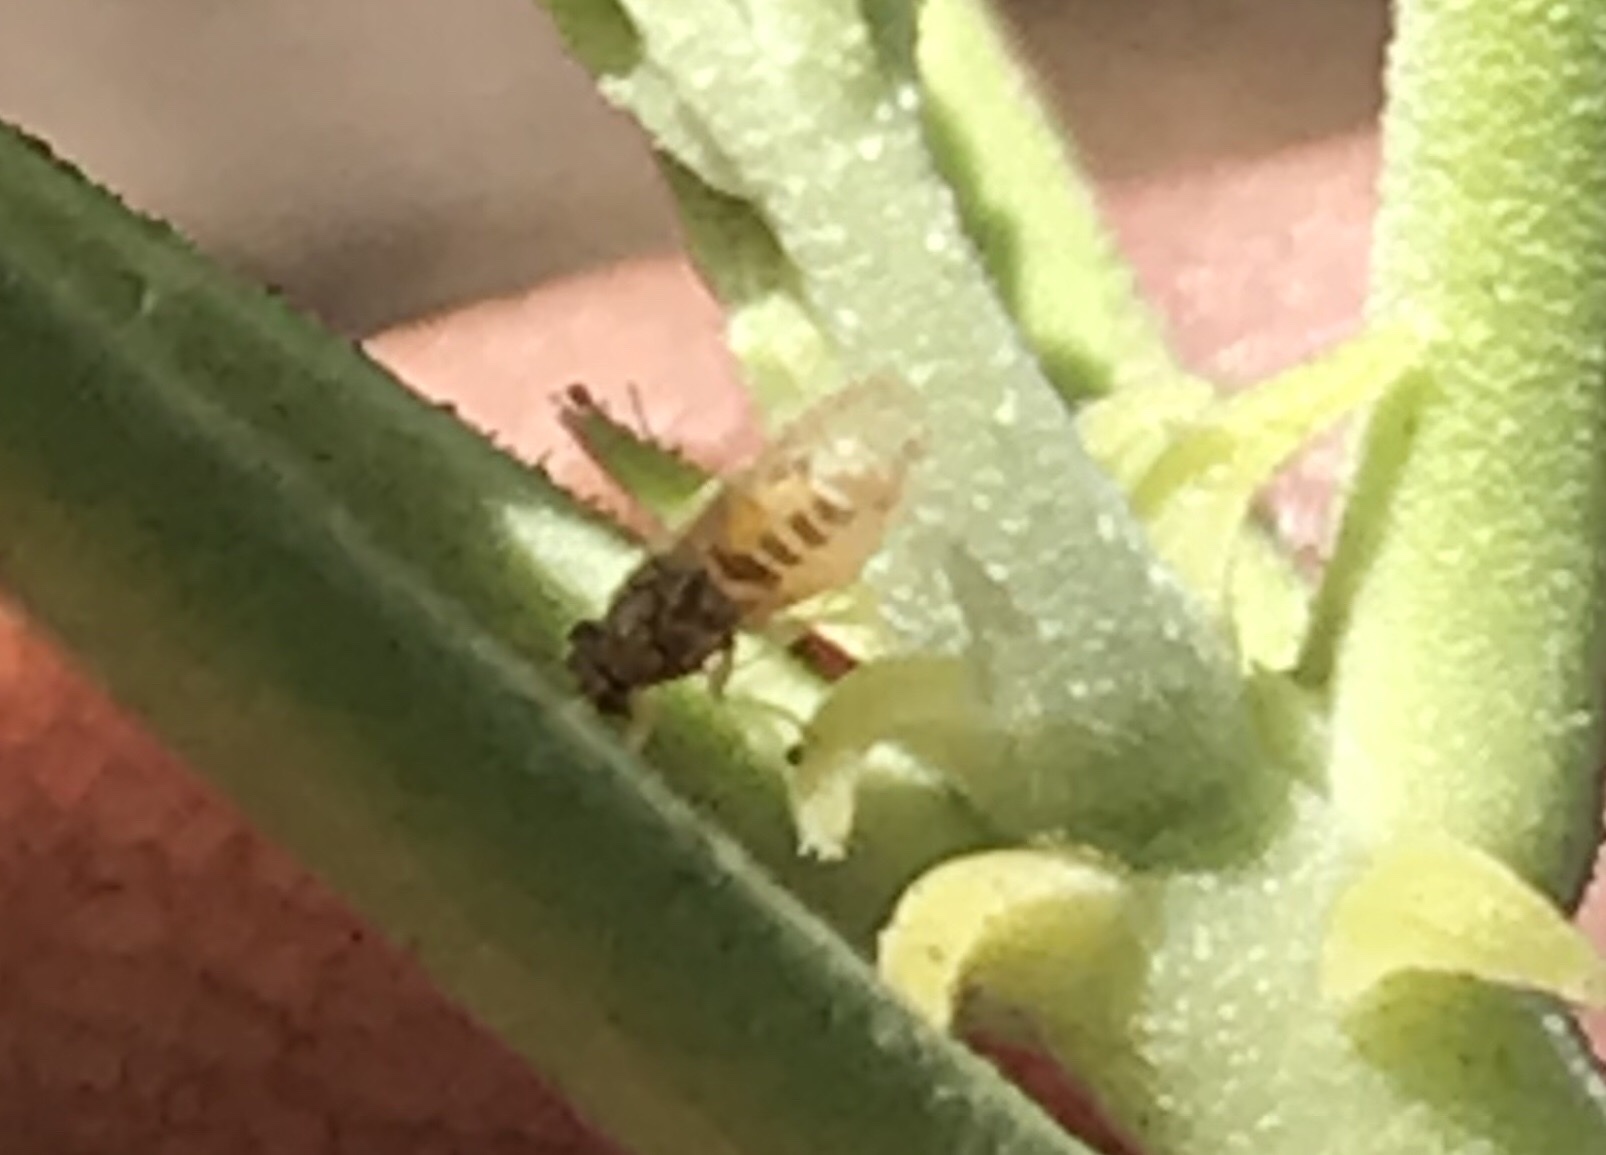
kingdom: Animalia
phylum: Arthropoda
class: Insecta
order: Hemiptera
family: Triozidae
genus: Bactericera
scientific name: Bactericera lavaterae
